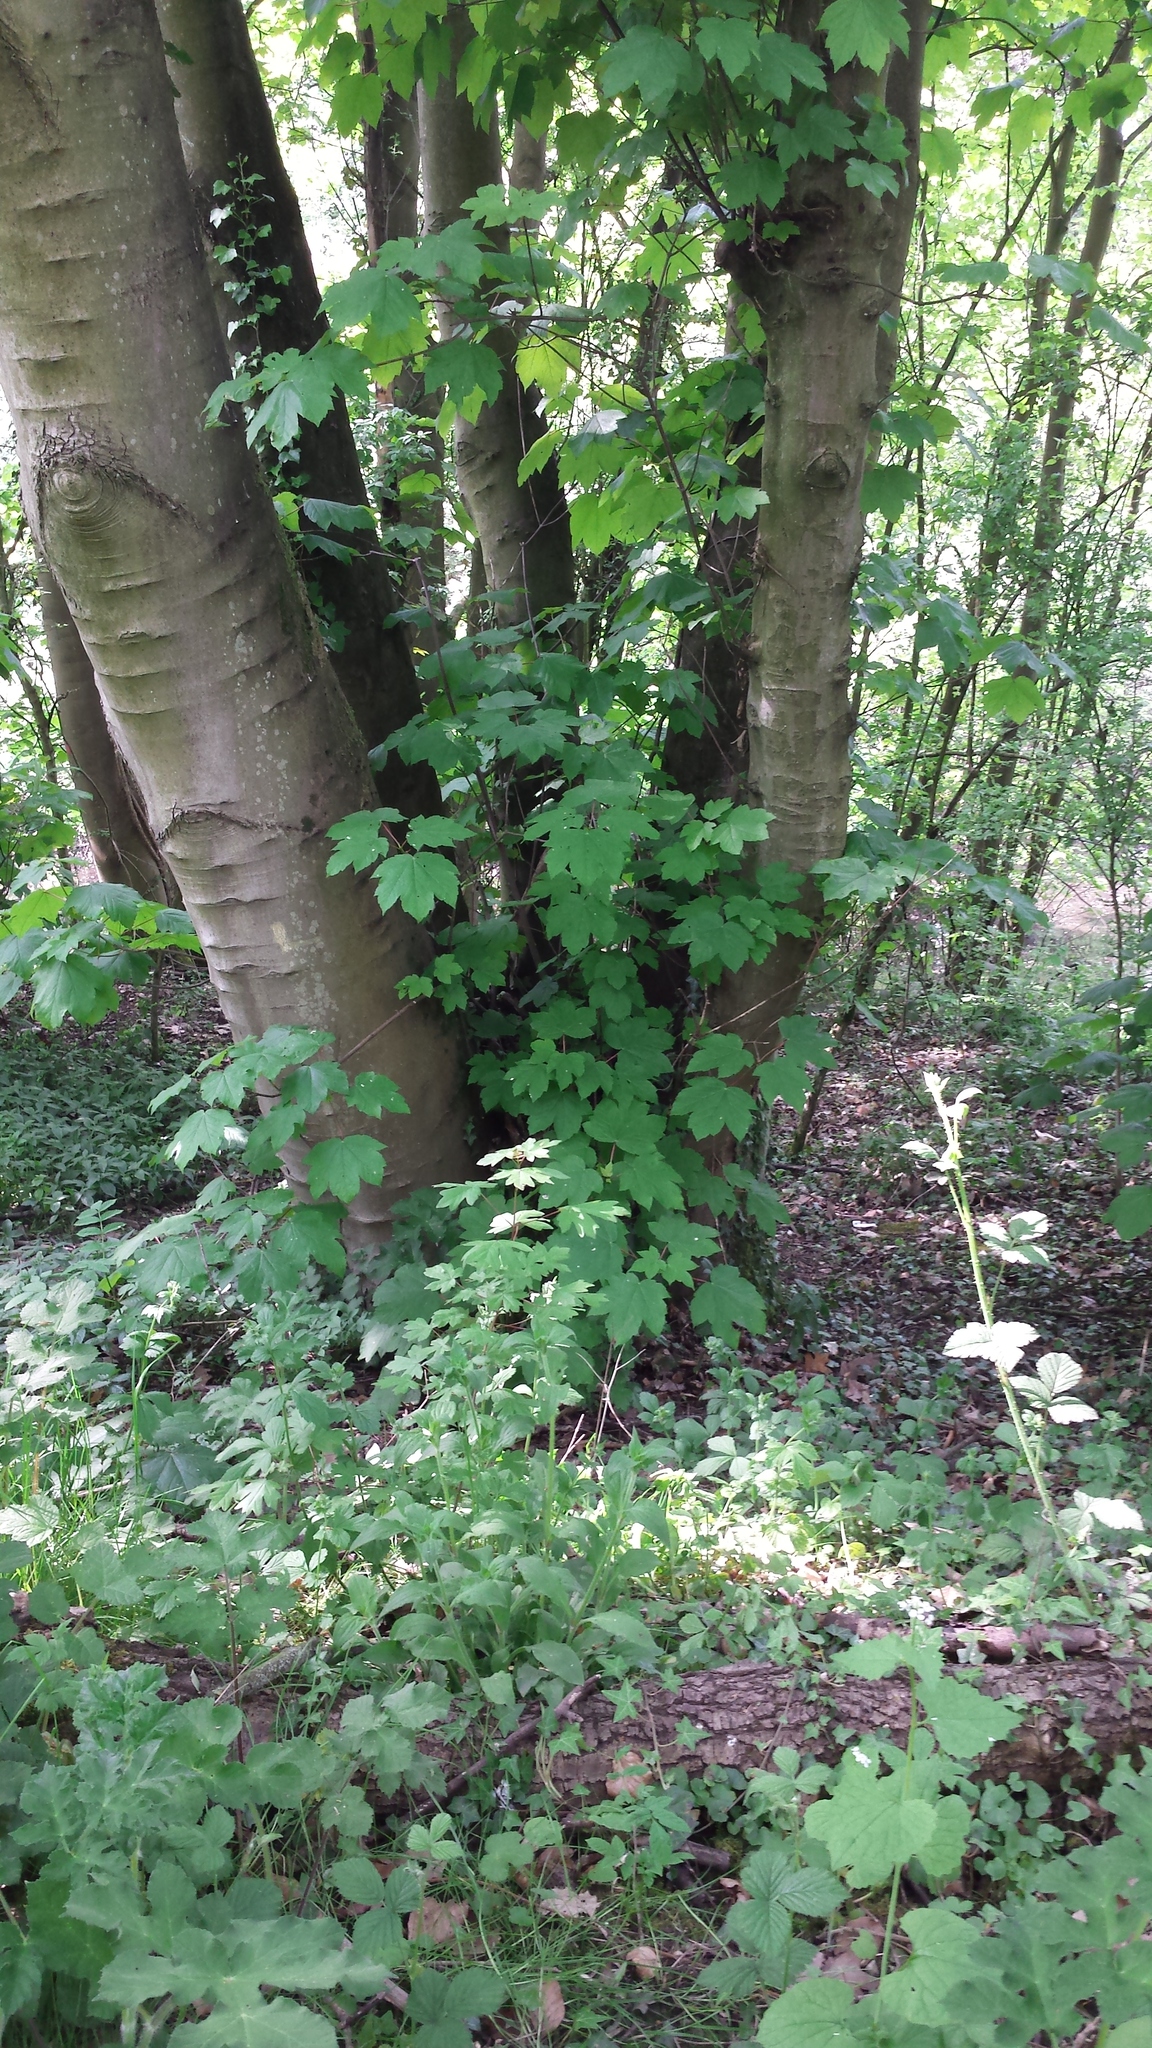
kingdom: Plantae
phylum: Tracheophyta
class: Magnoliopsida
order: Sapindales
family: Sapindaceae
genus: Acer
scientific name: Acer pseudoplatanus
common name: Sycamore
